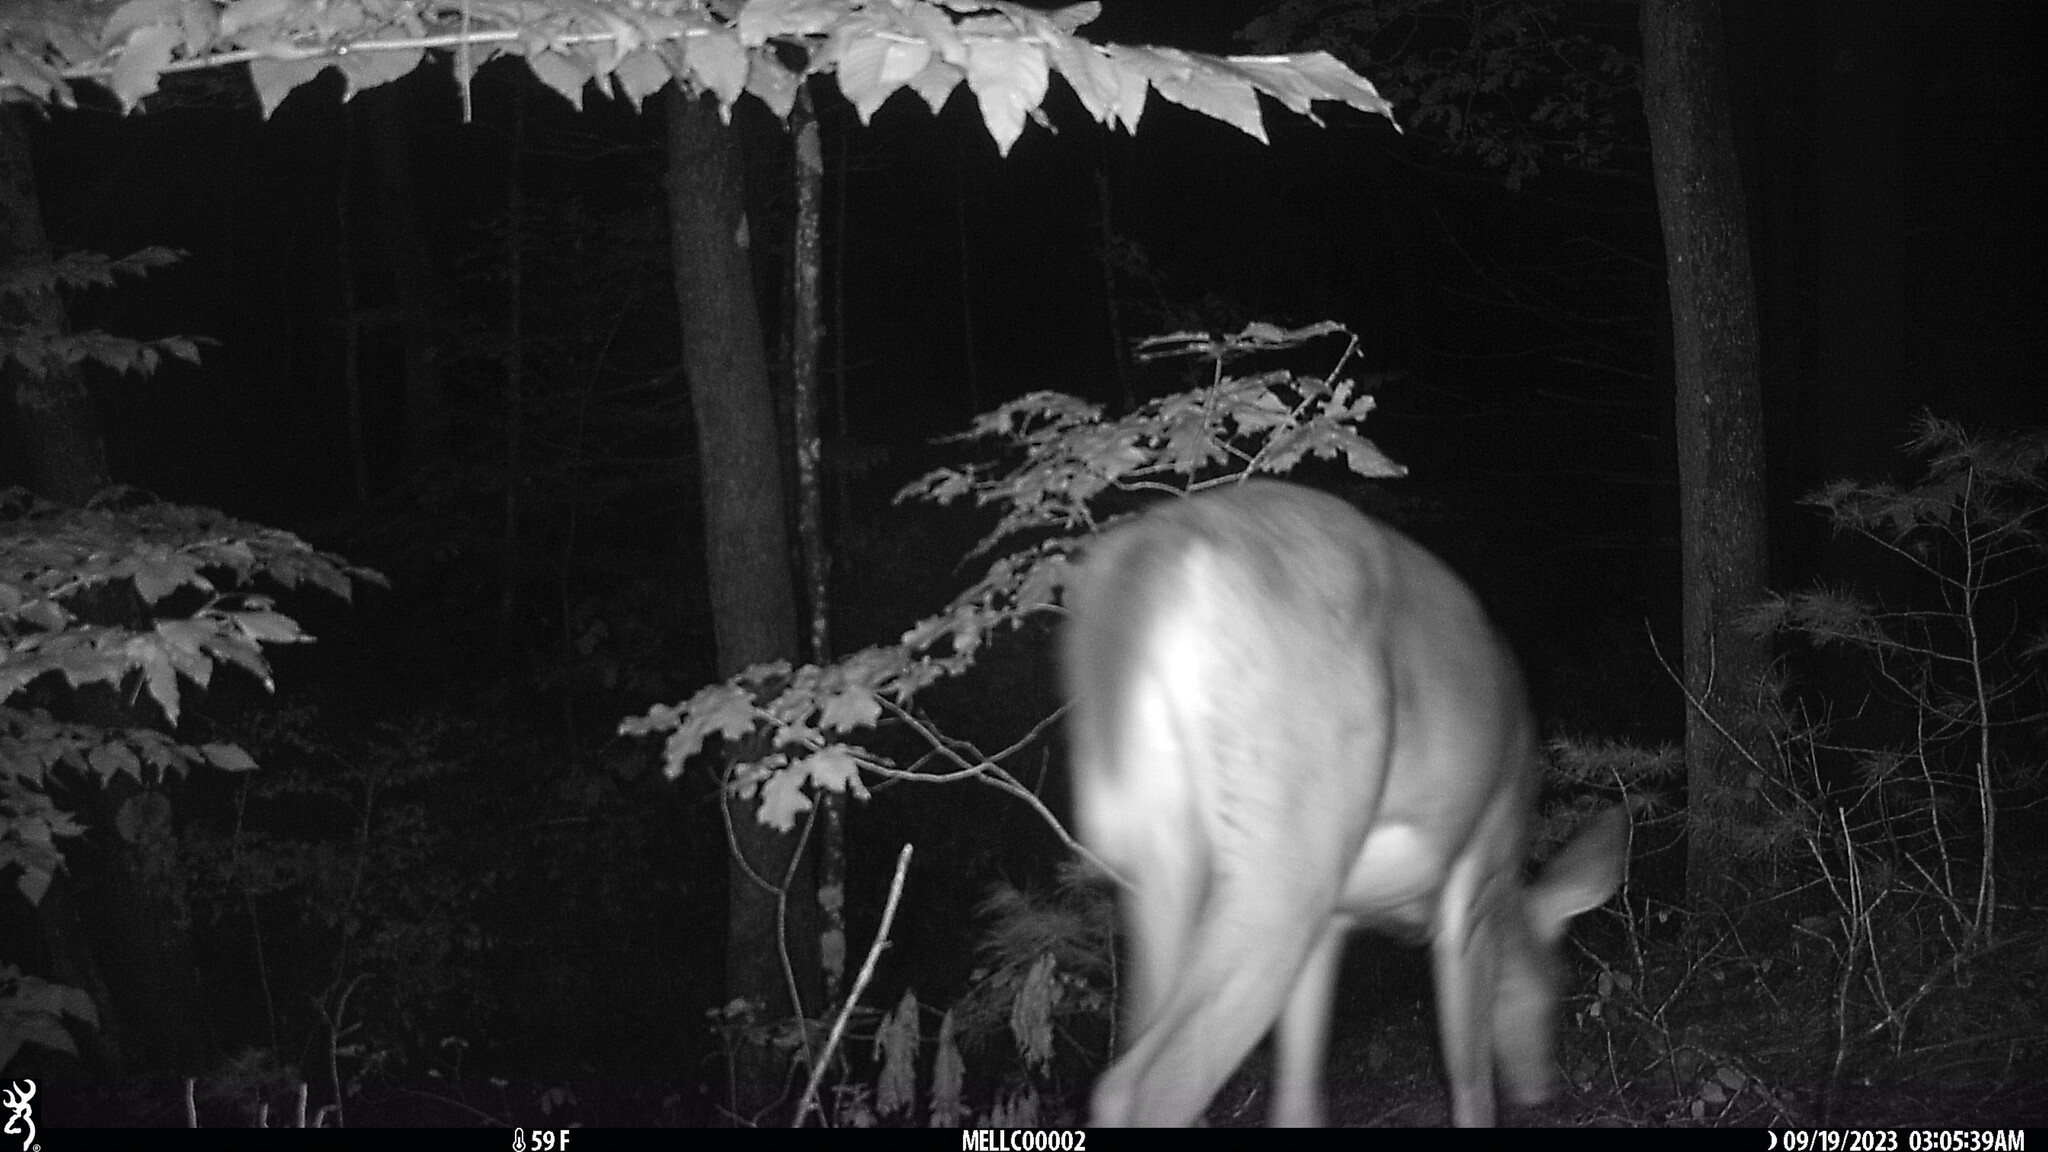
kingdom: Animalia
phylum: Chordata
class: Mammalia
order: Artiodactyla
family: Cervidae
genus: Odocoileus
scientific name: Odocoileus virginianus
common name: White-tailed deer
